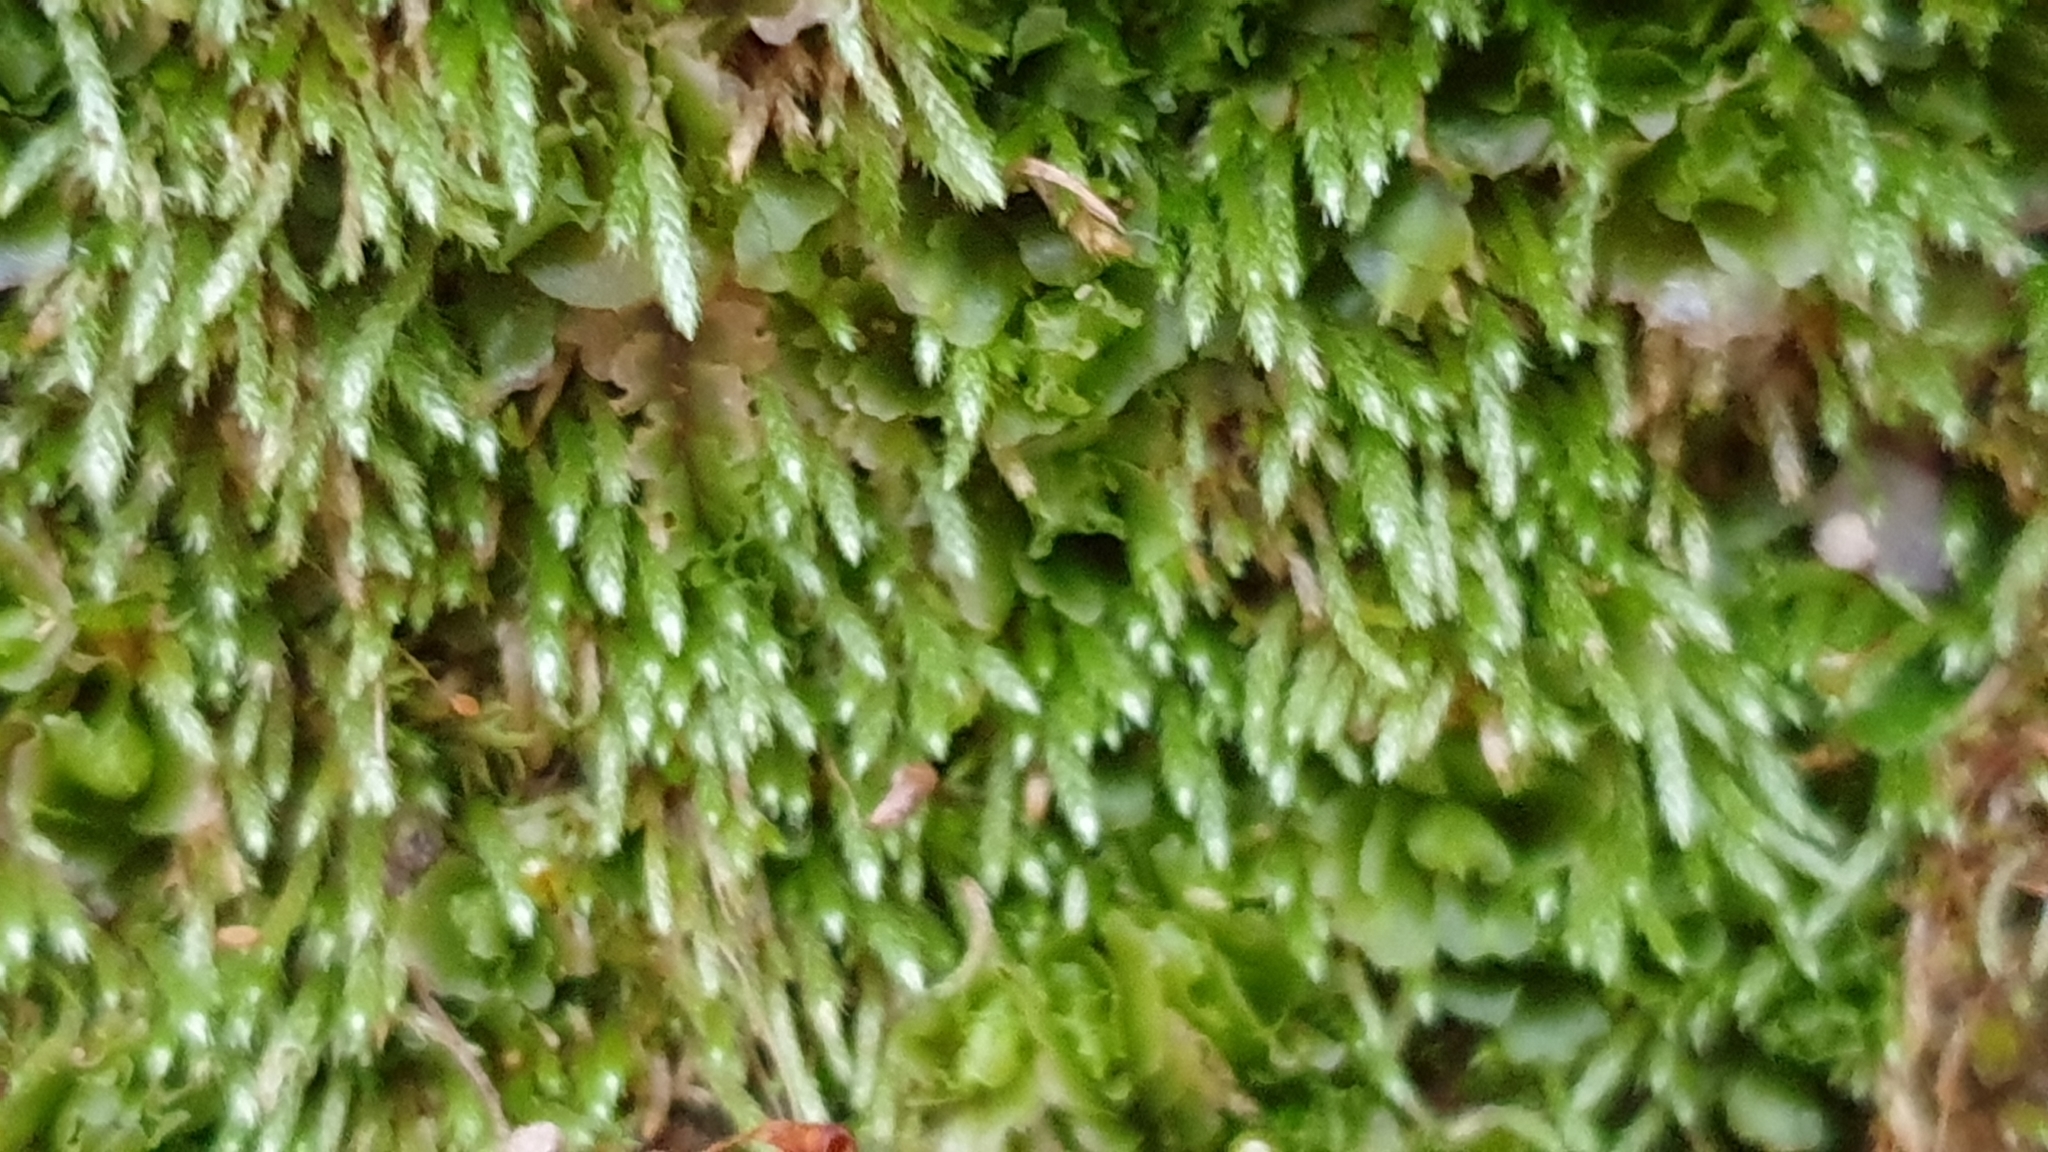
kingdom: Plantae
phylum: Bryophyta
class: Bryopsida
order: Bryales
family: Bryaceae
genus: Bryum
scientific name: Bryum argenteum
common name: Silver-moss
